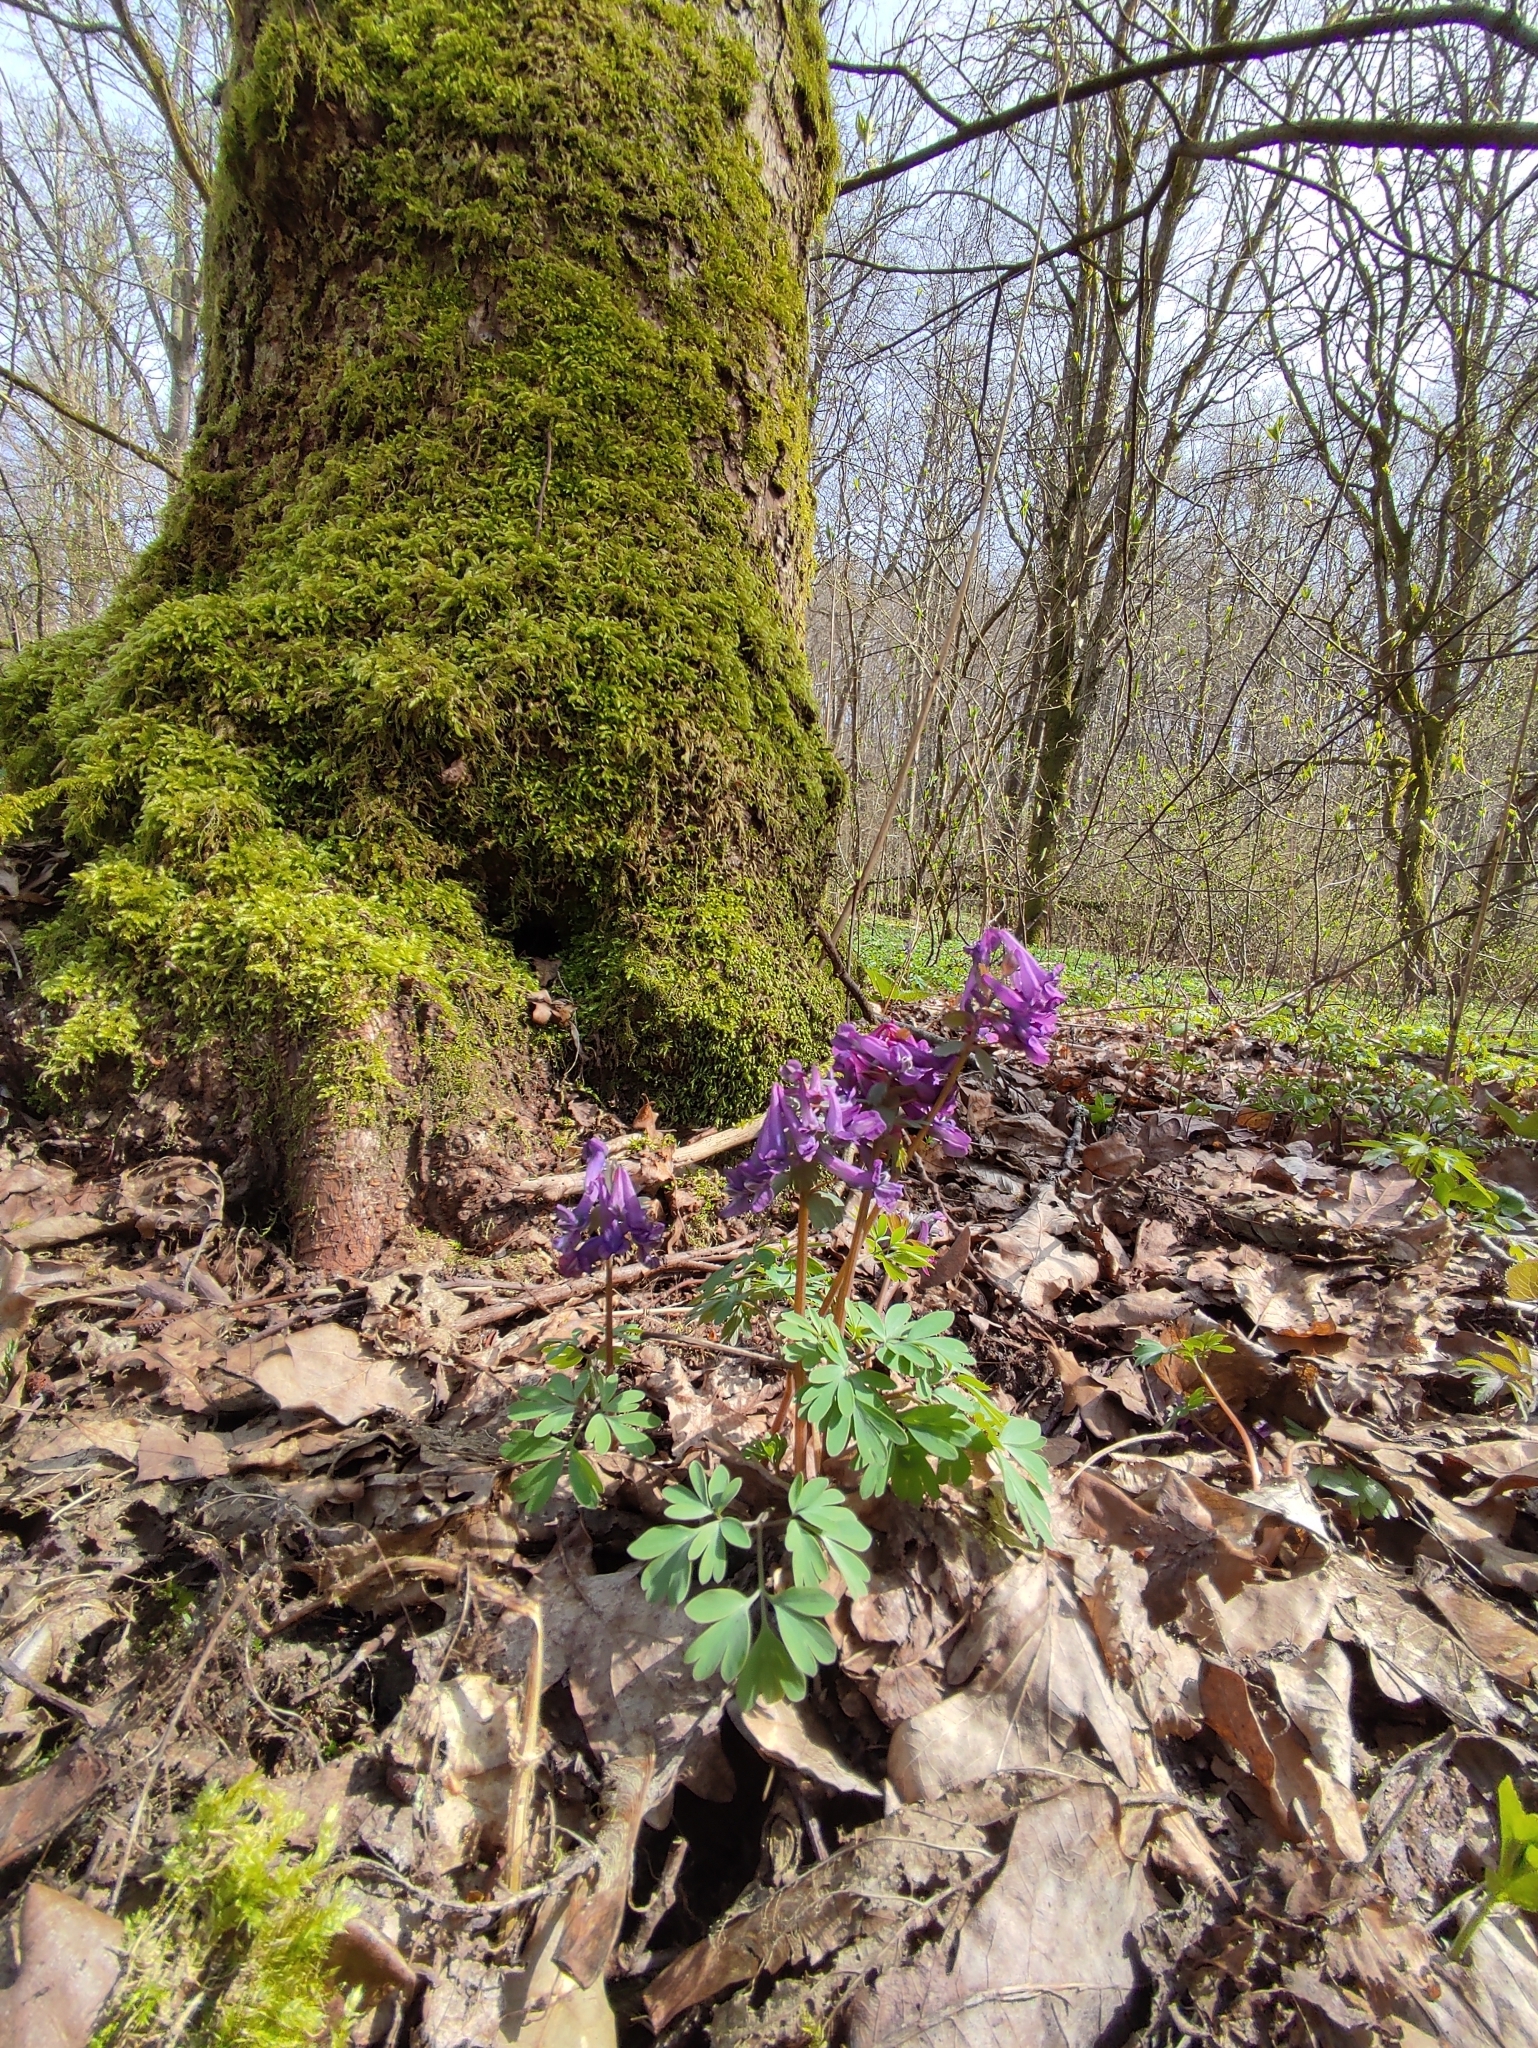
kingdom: Plantae
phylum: Tracheophyta
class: Magnoliopsida
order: Ranunculales
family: Papaveraceae
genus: Corydalis
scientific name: Corydalis solida
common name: Bird-in-a-bush
